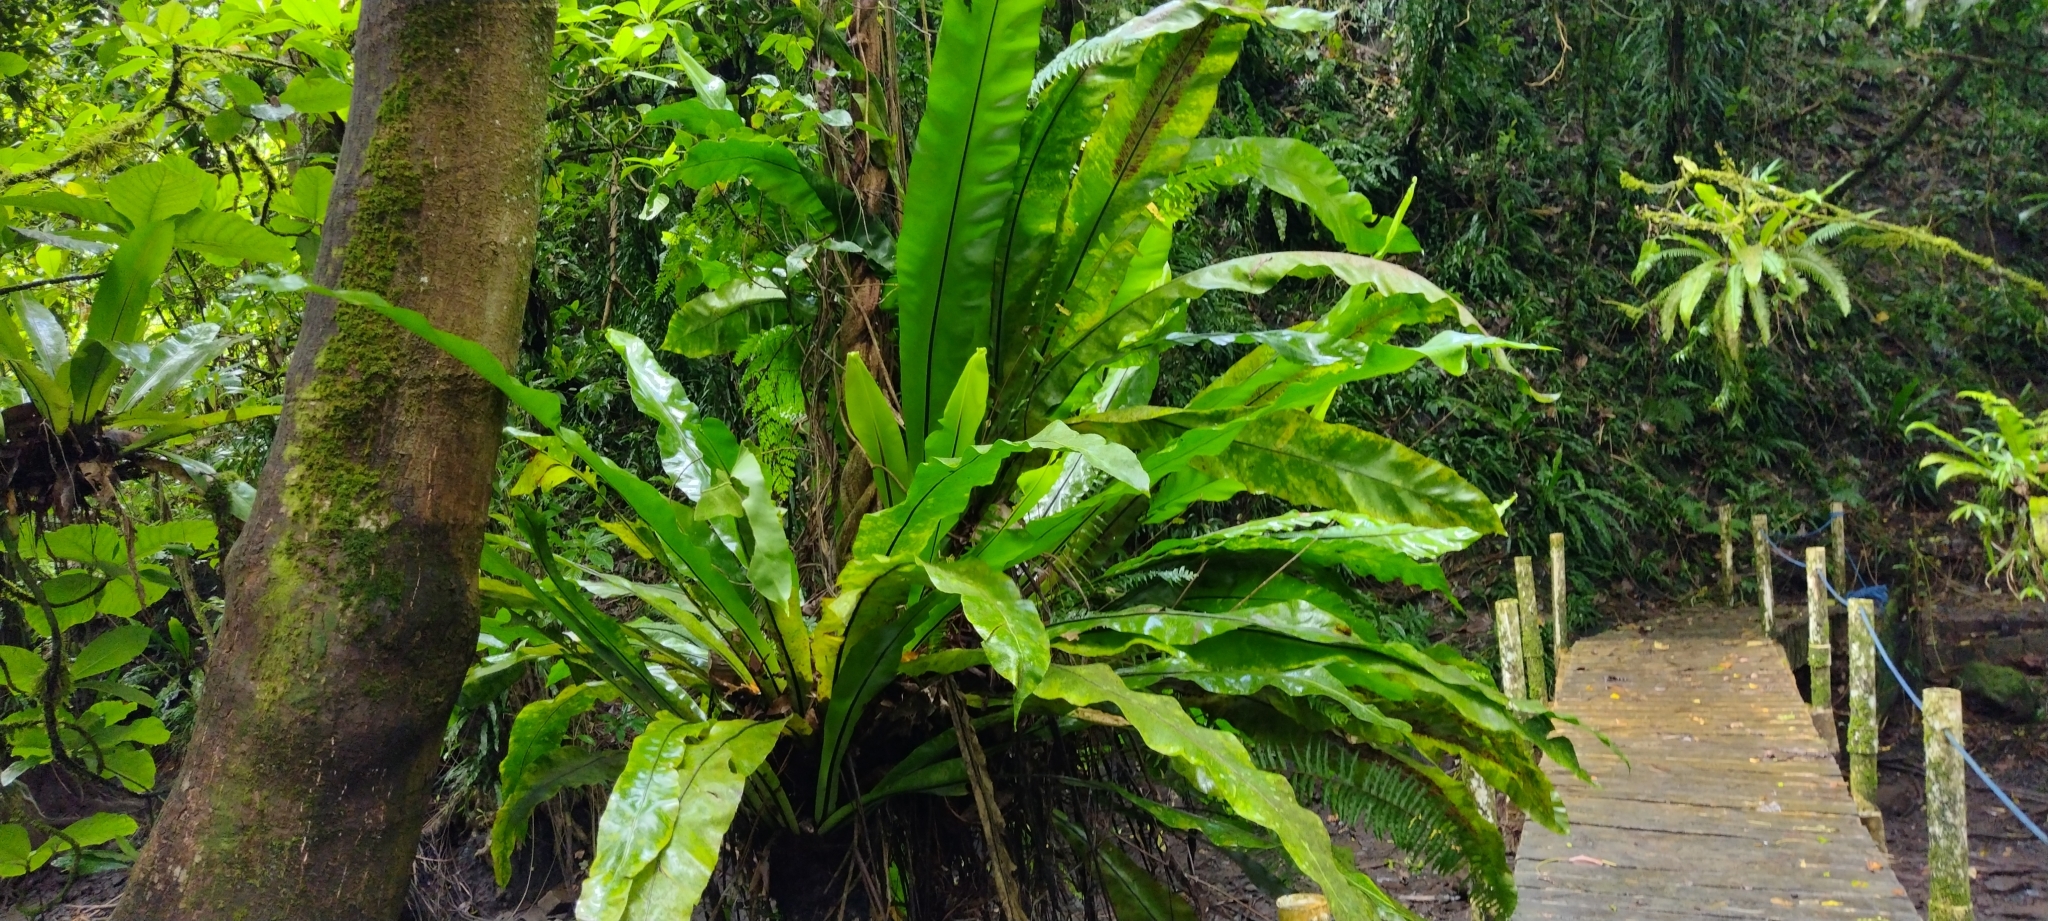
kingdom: Plantae
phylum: Tracheophyta
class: Polypodiopsida
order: Polypodiales
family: Aspleniaceae
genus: Asplenium
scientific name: Asplenium nidus
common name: Bird's-nest fern
